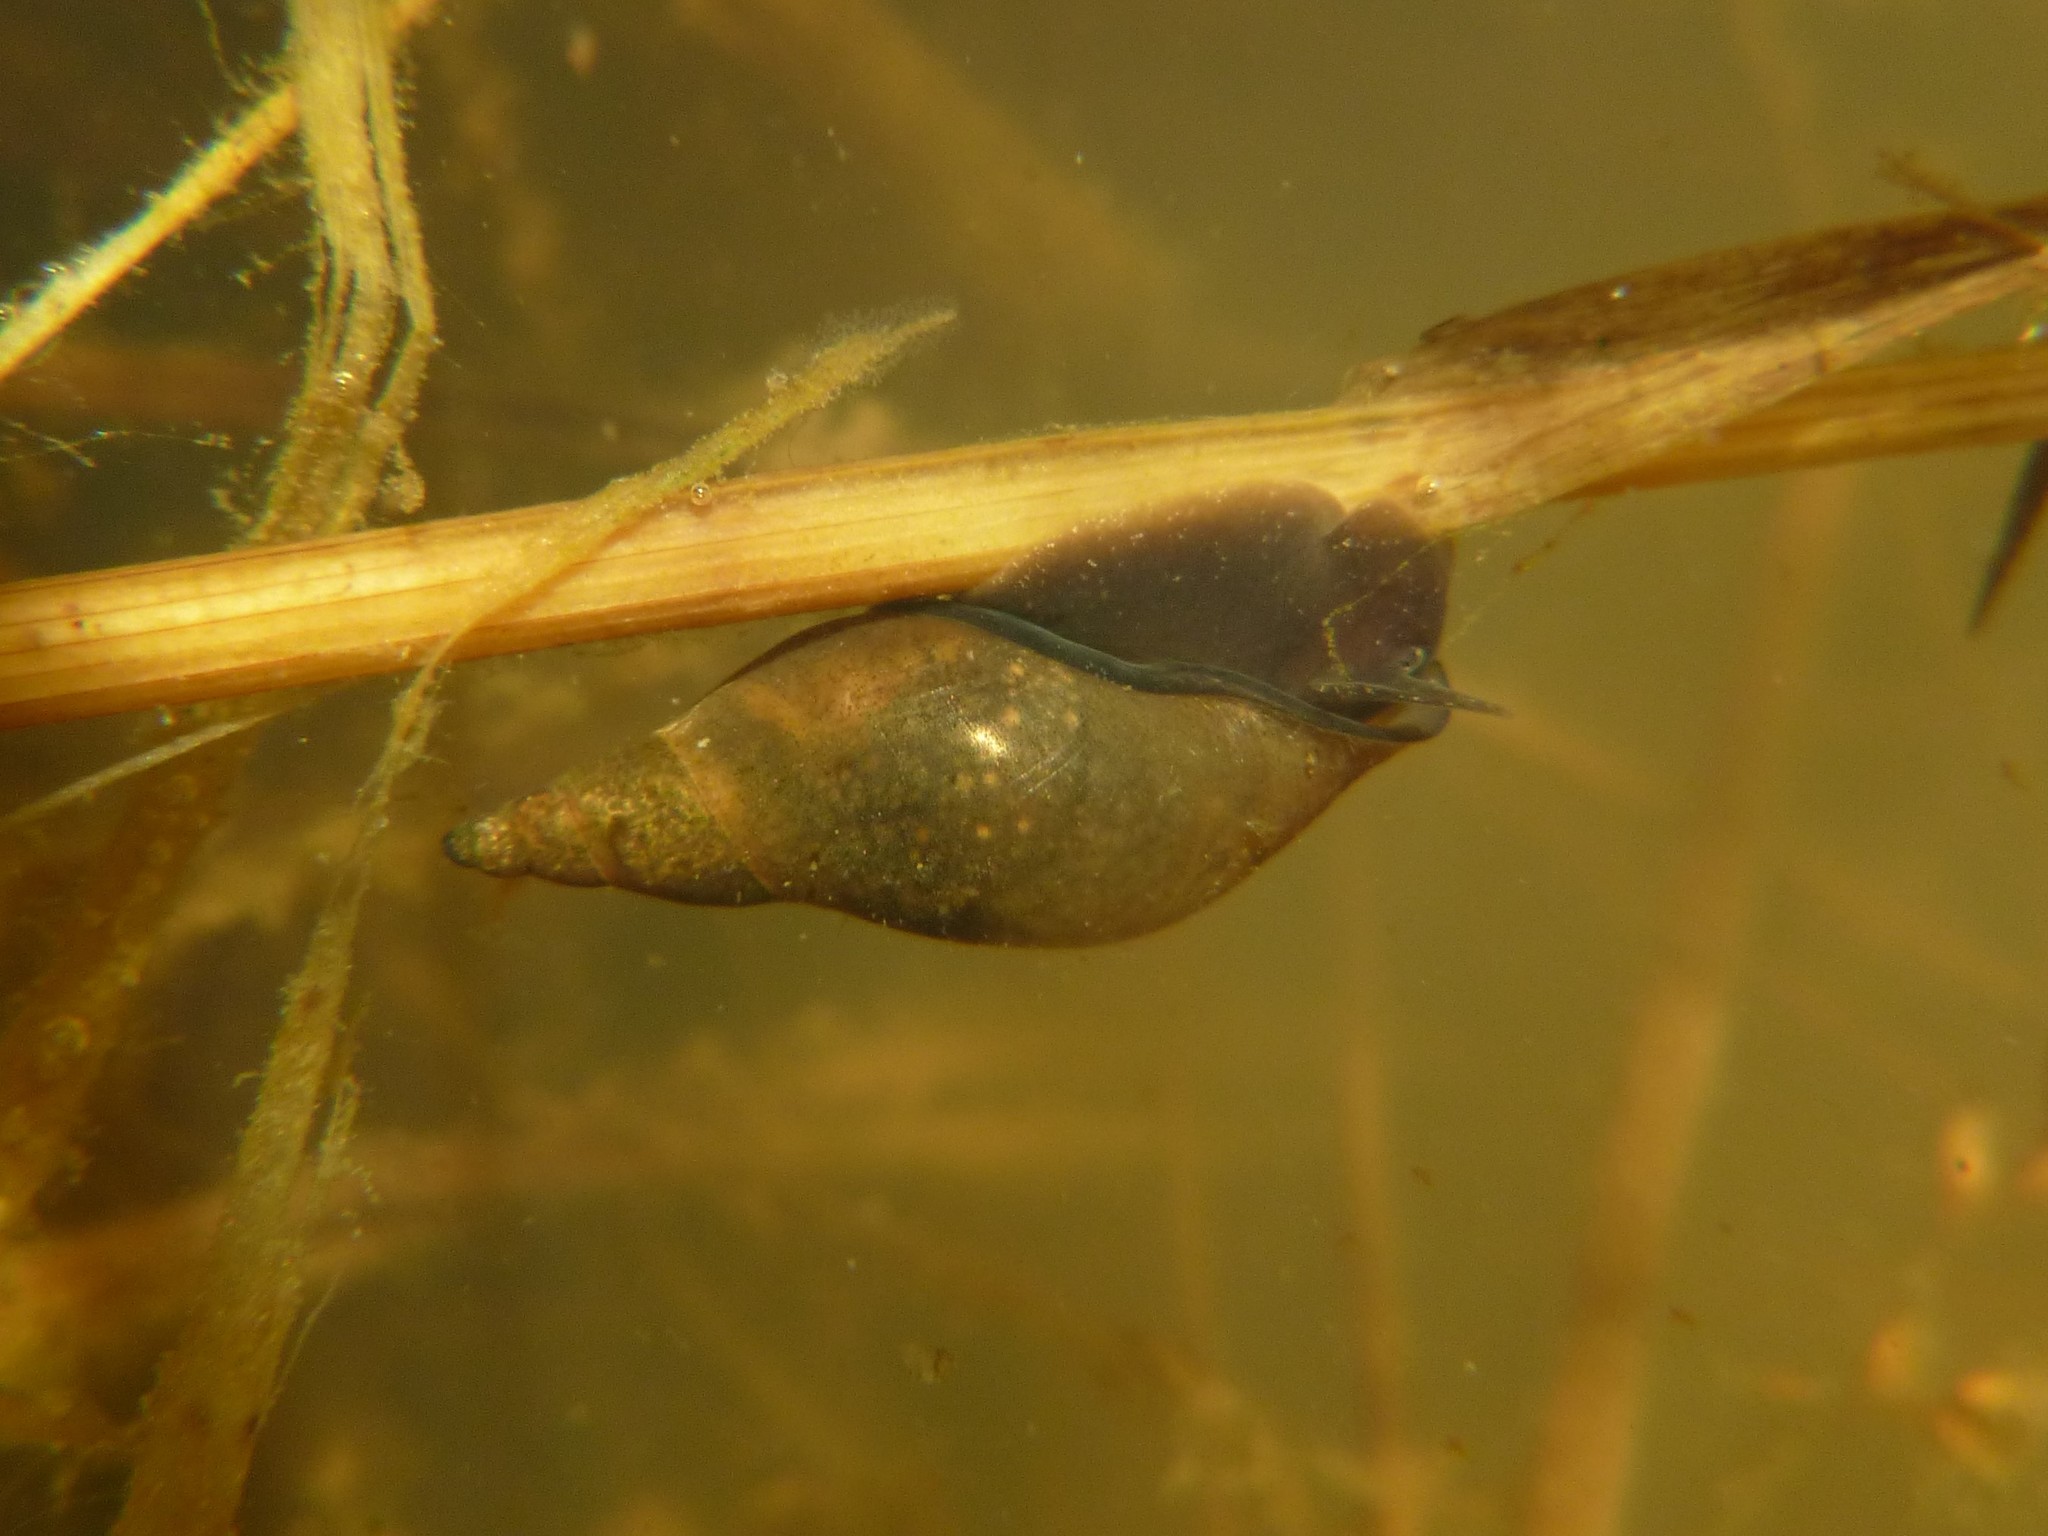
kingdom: Animalia
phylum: Mollusca
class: Gastropoda
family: Lymnaeidae
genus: Lymnaea
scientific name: Lymnaea stagnalis
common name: Great pond snail
